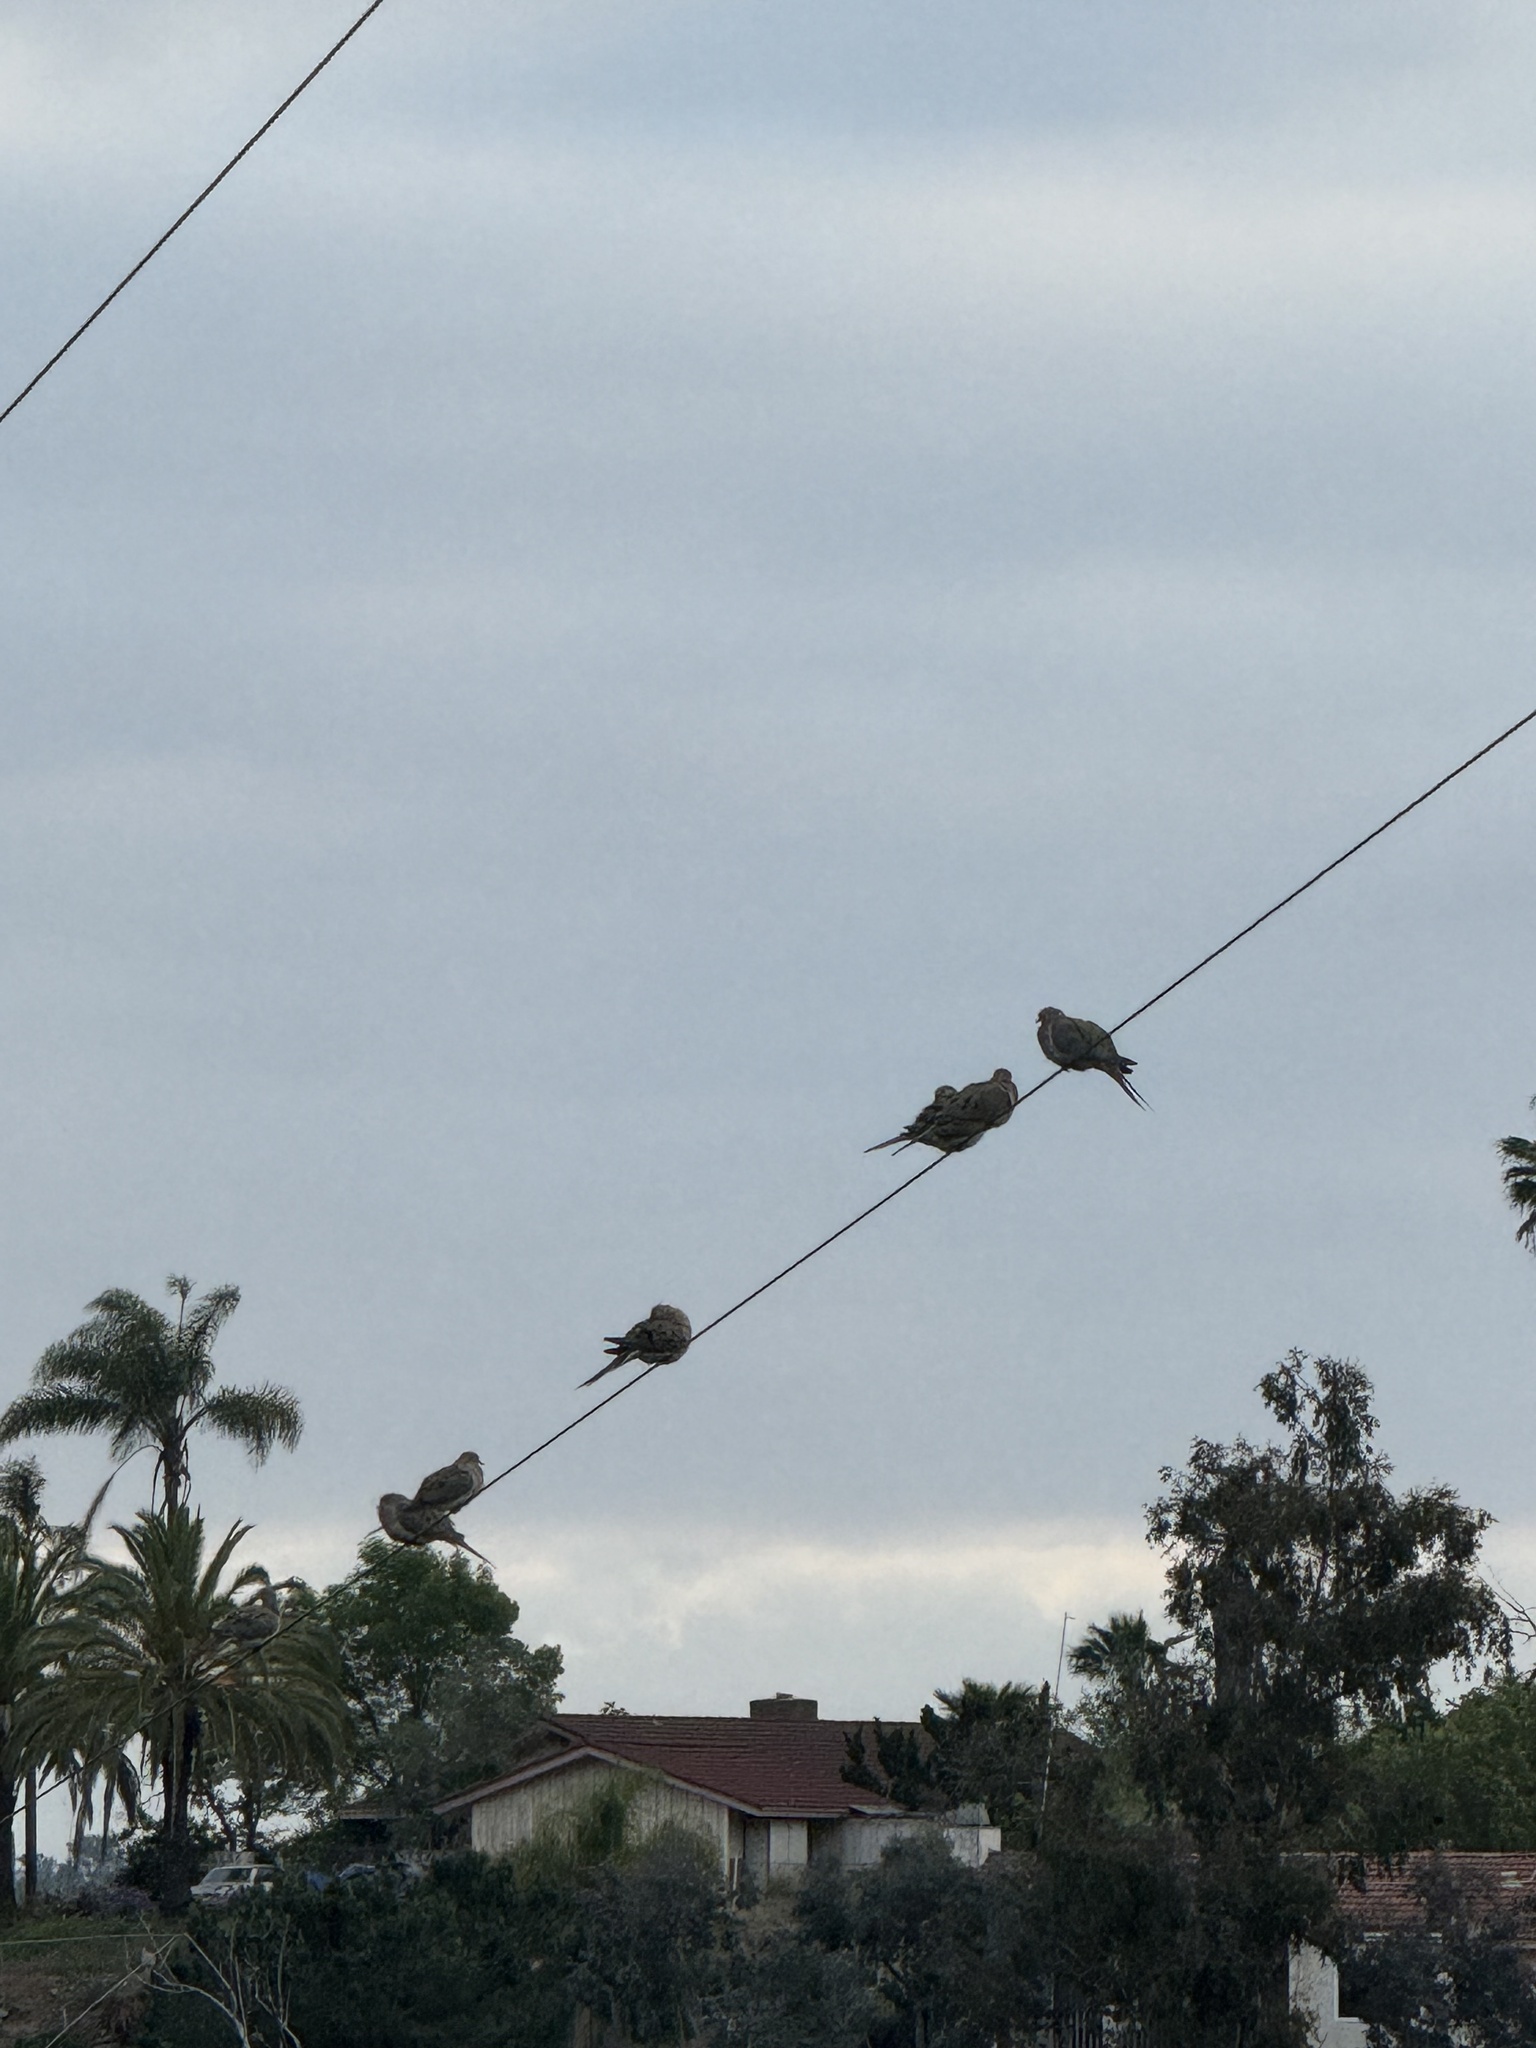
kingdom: Animalia
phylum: Chordata
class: Aves
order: Columbiformes
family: Columbidae
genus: Zenaida
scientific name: Zenaida macroura
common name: Mourning dove
